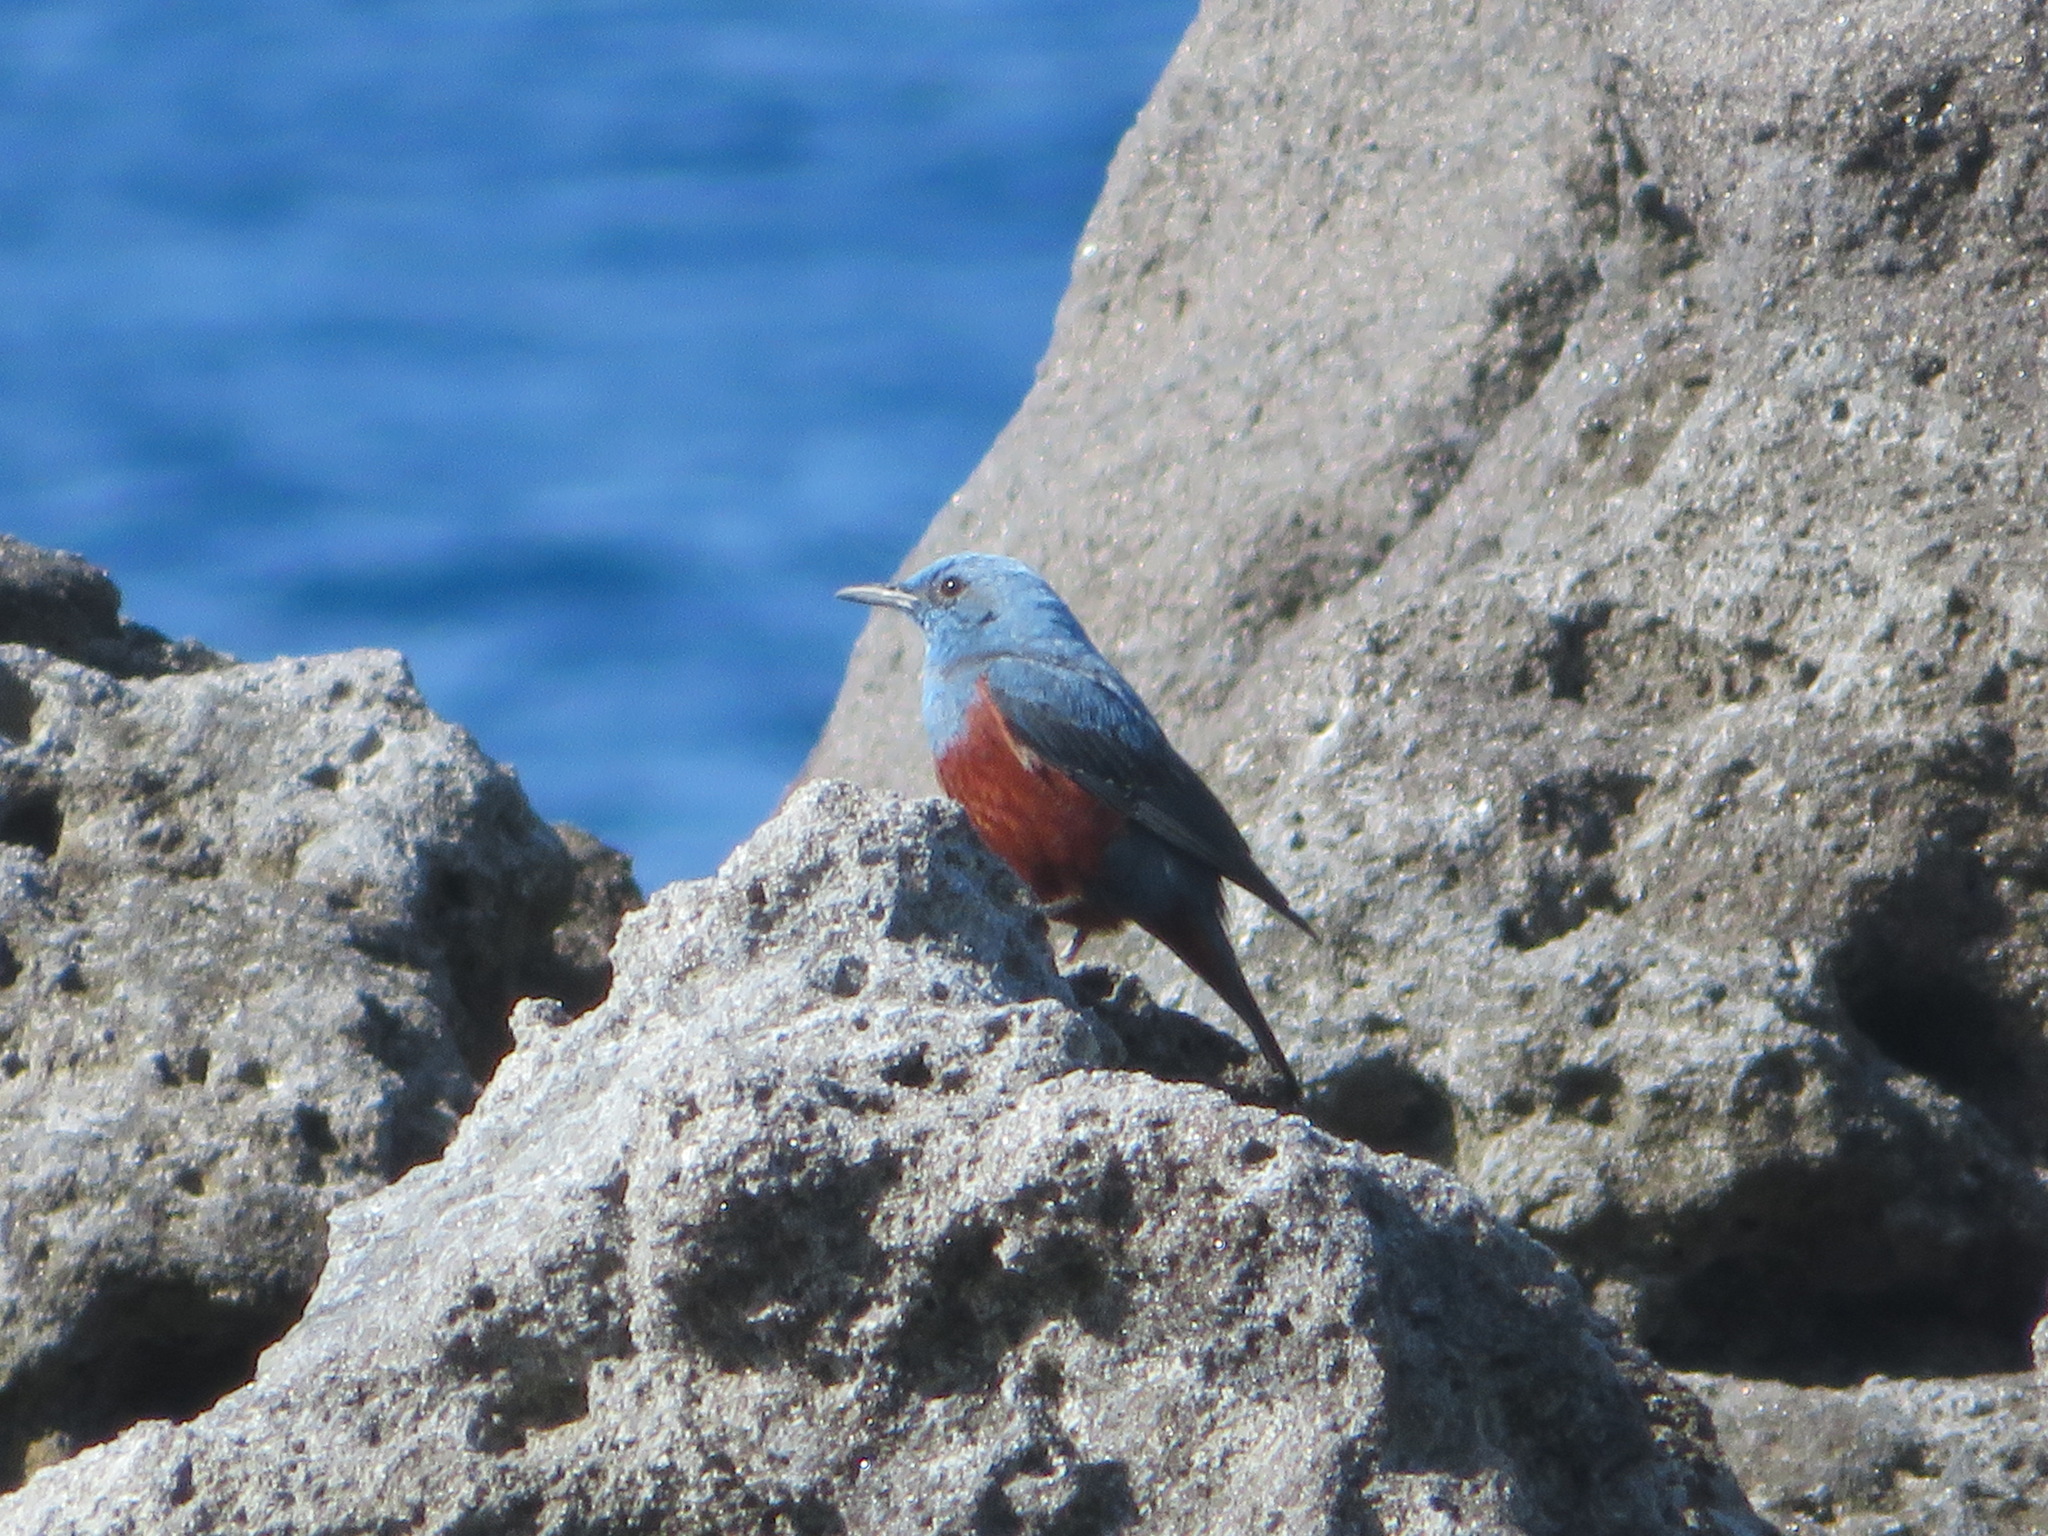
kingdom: Animalia
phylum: Chordata
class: Aves
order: Passeriformes
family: Muscicapidae
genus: Monticola
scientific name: Monticola solitarius
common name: Blue rock thrush
